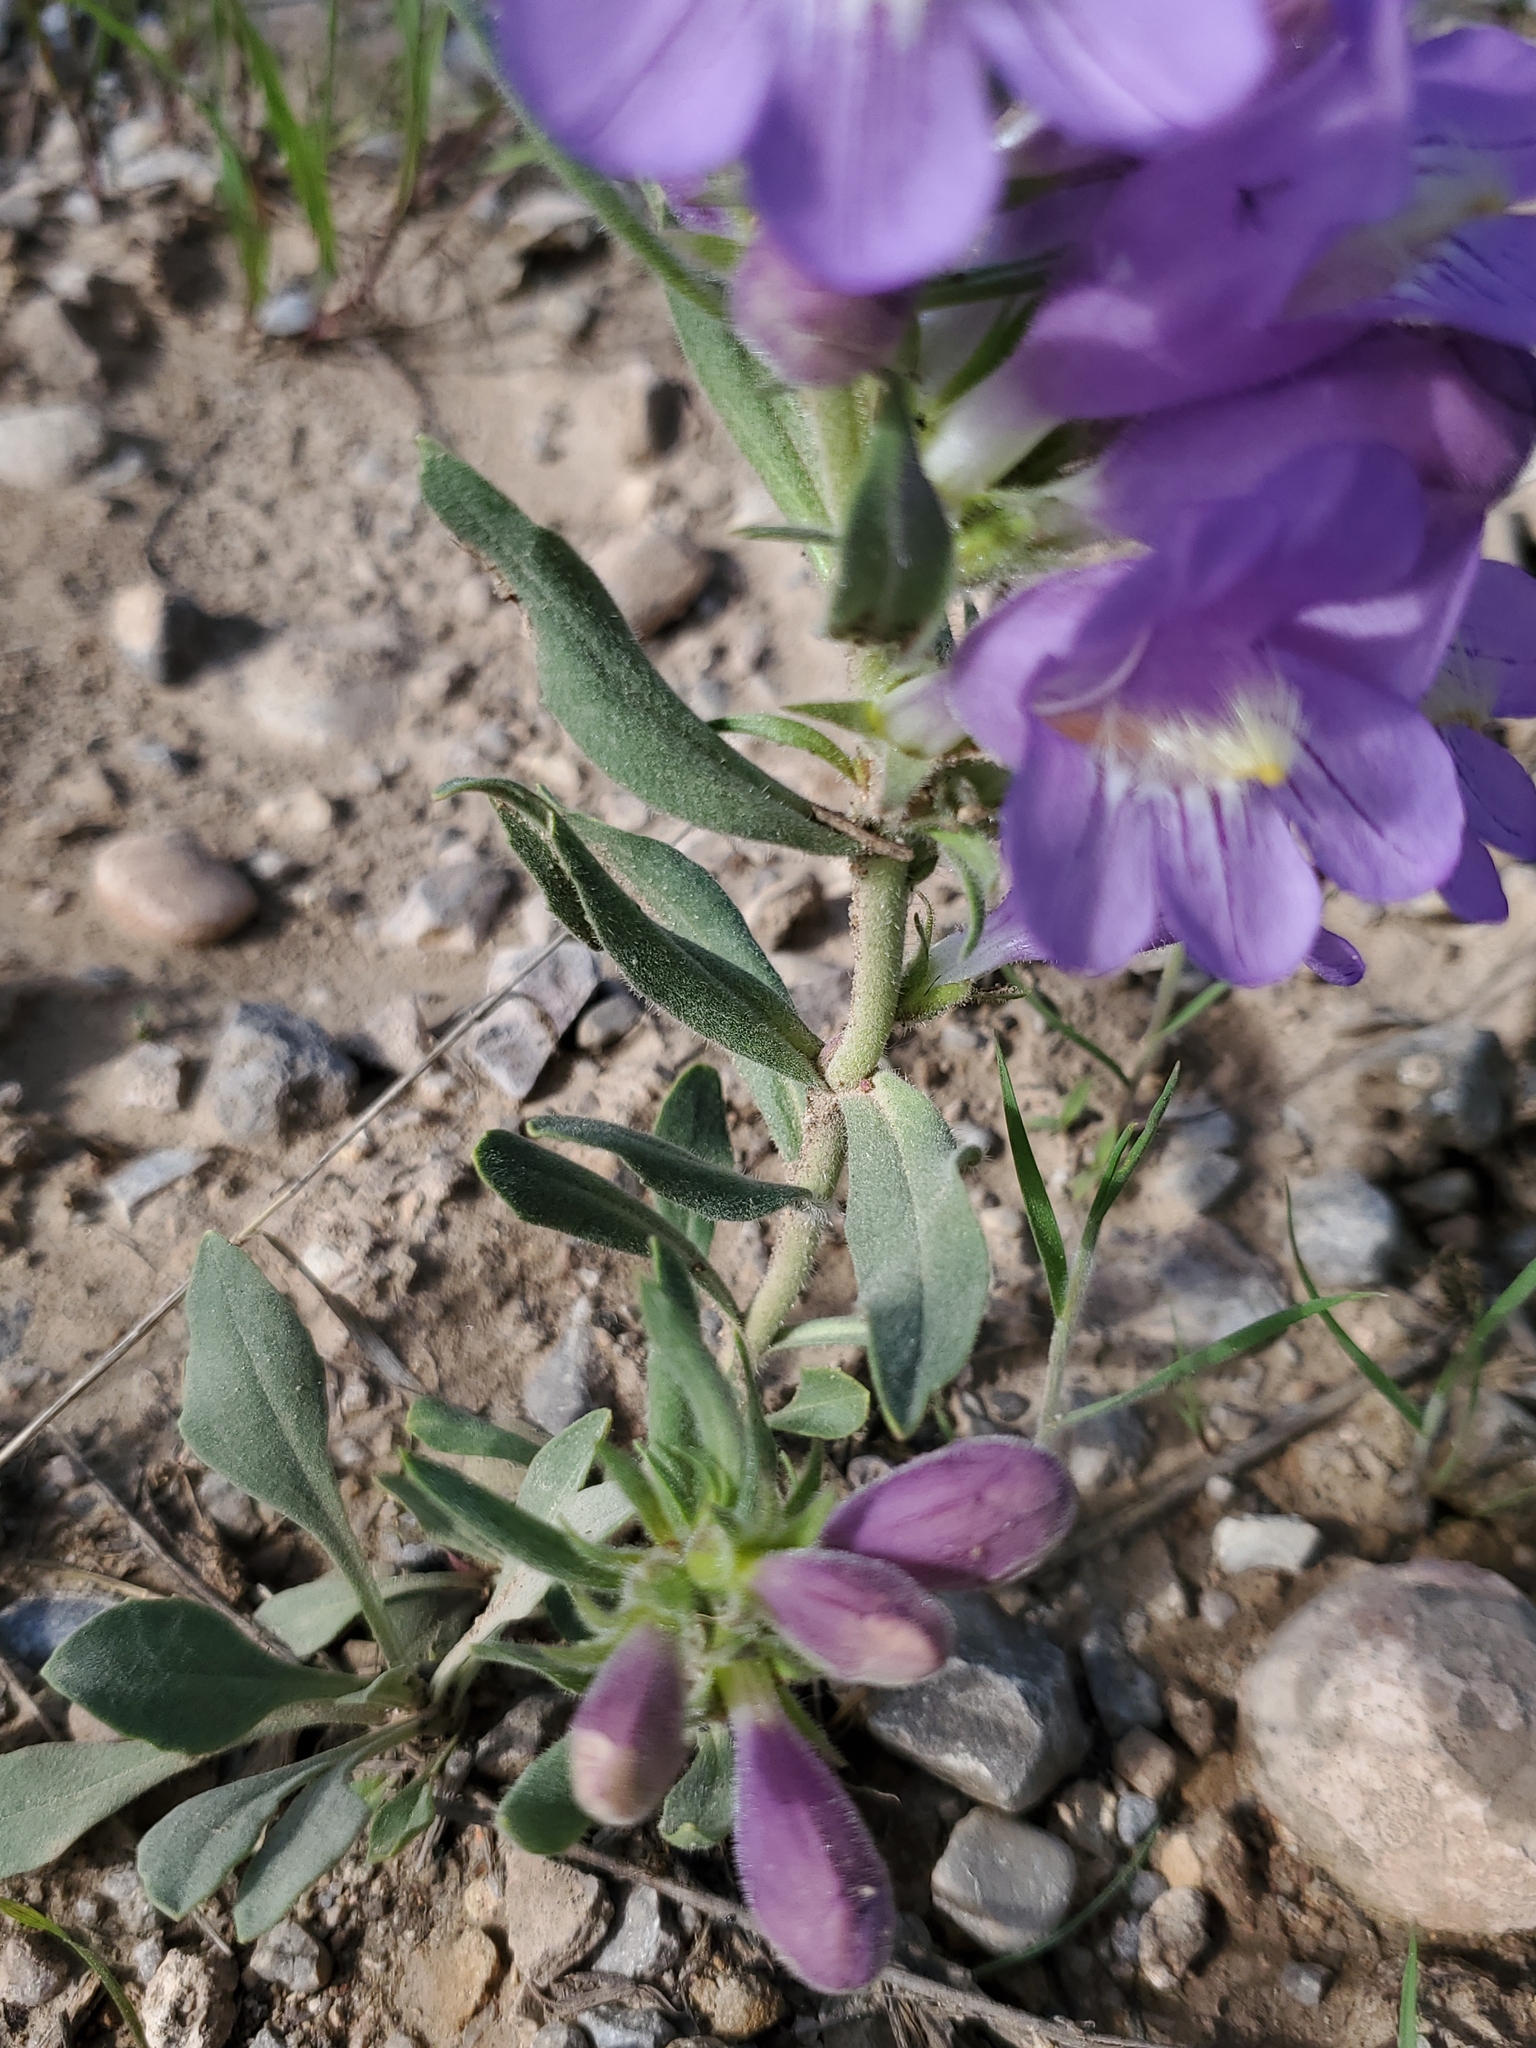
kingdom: Plantae
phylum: Tracheophyta
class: Magnoliopsida
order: Lamiales
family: Plantaginaceae
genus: Penstemon
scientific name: Penstemon eriantherus
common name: Crested beardtongue
